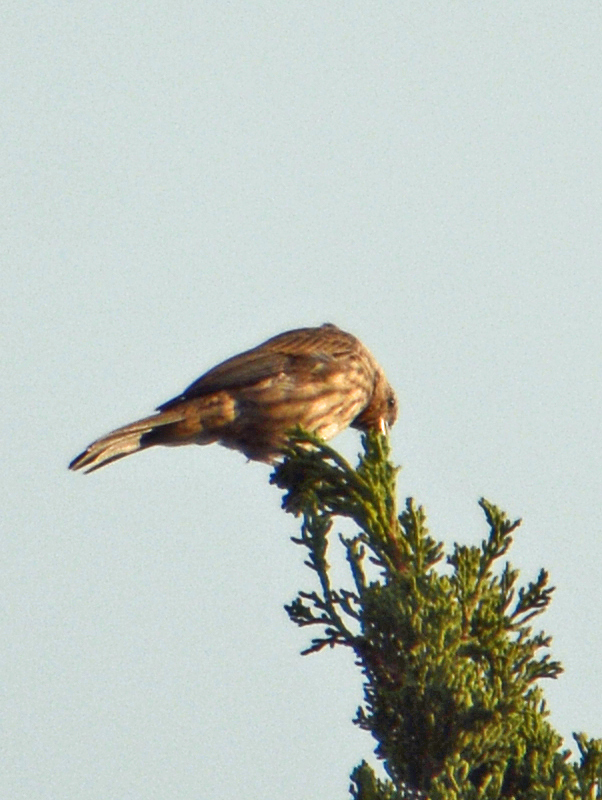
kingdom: Animalia
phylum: Chordata
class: Aves
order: Passeriformes
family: Fringillidae
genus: Haemorhous
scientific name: Haemorhous mexicanus
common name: House finch
